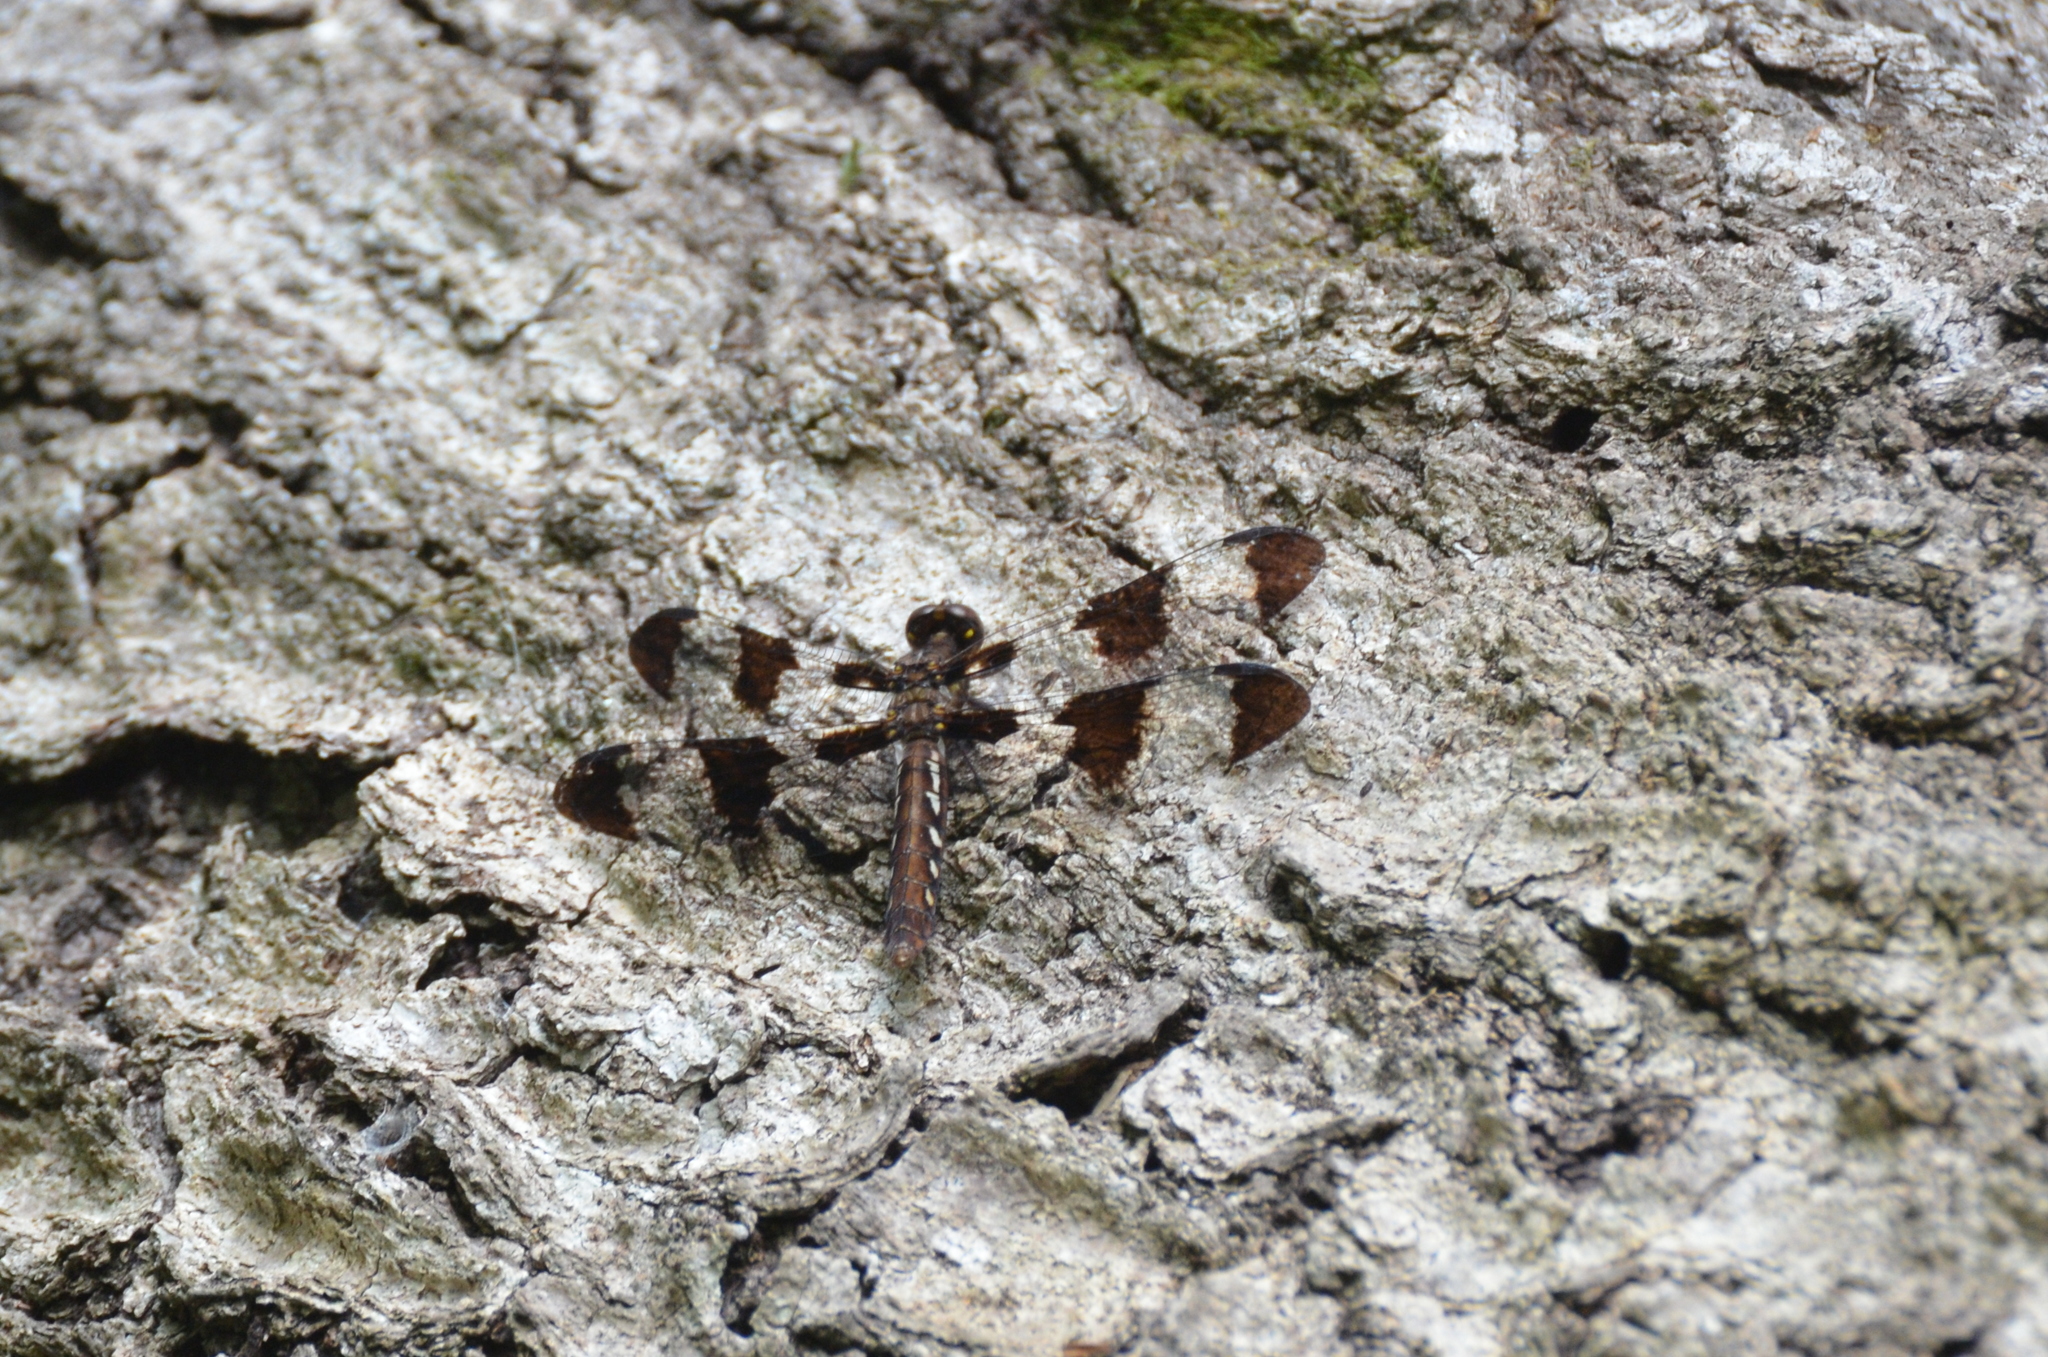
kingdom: Animalia
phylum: Arthropoda
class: Insecta
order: Odonata
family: Libellulidae
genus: Plathemis
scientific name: Plathemis lydia
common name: Common whitetail
